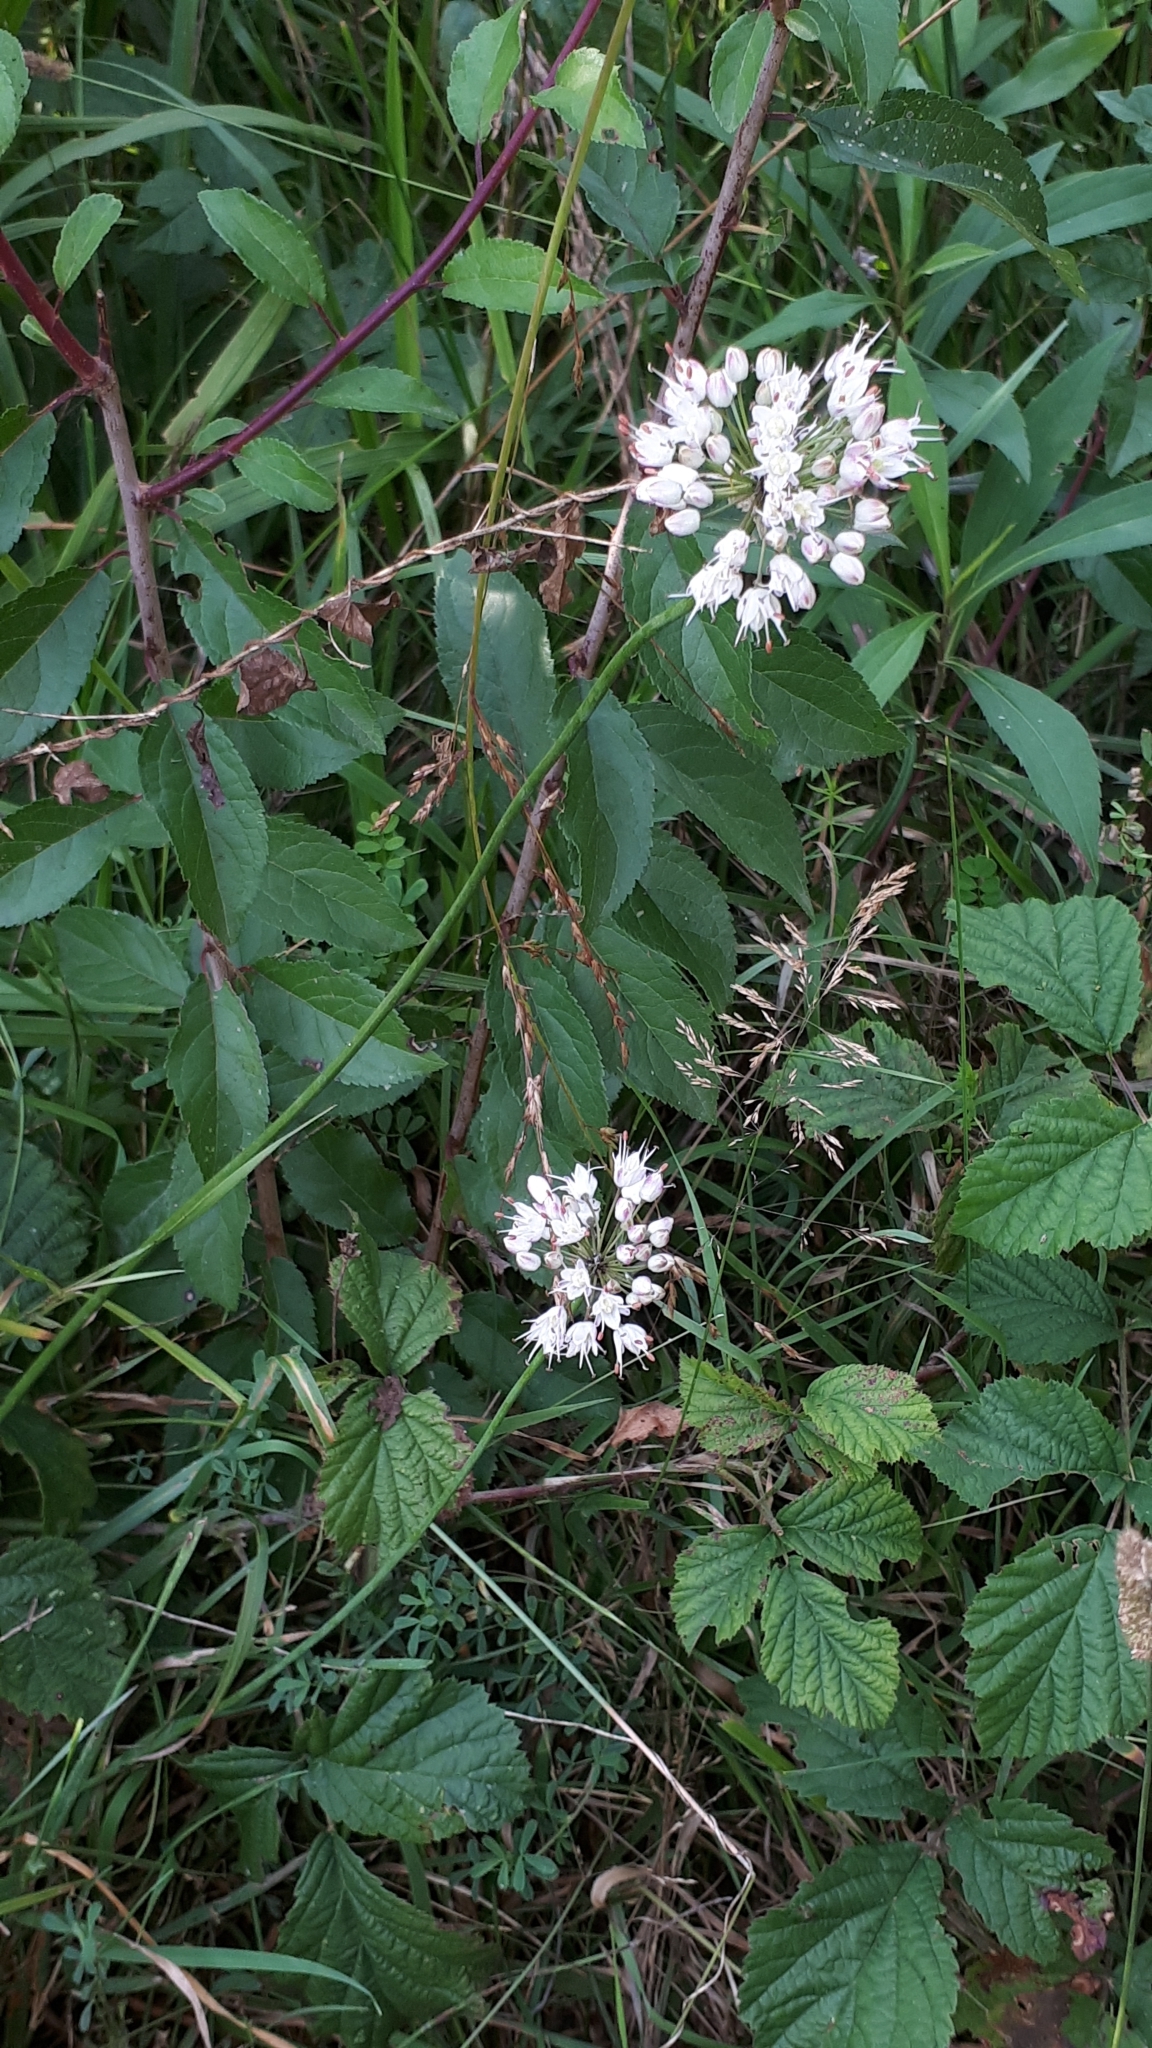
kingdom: Plantae
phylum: Tracheophyta
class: Liliopsida
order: Asparagales
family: Amaryllidaceae
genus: Allium
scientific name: Allium suaveolens
